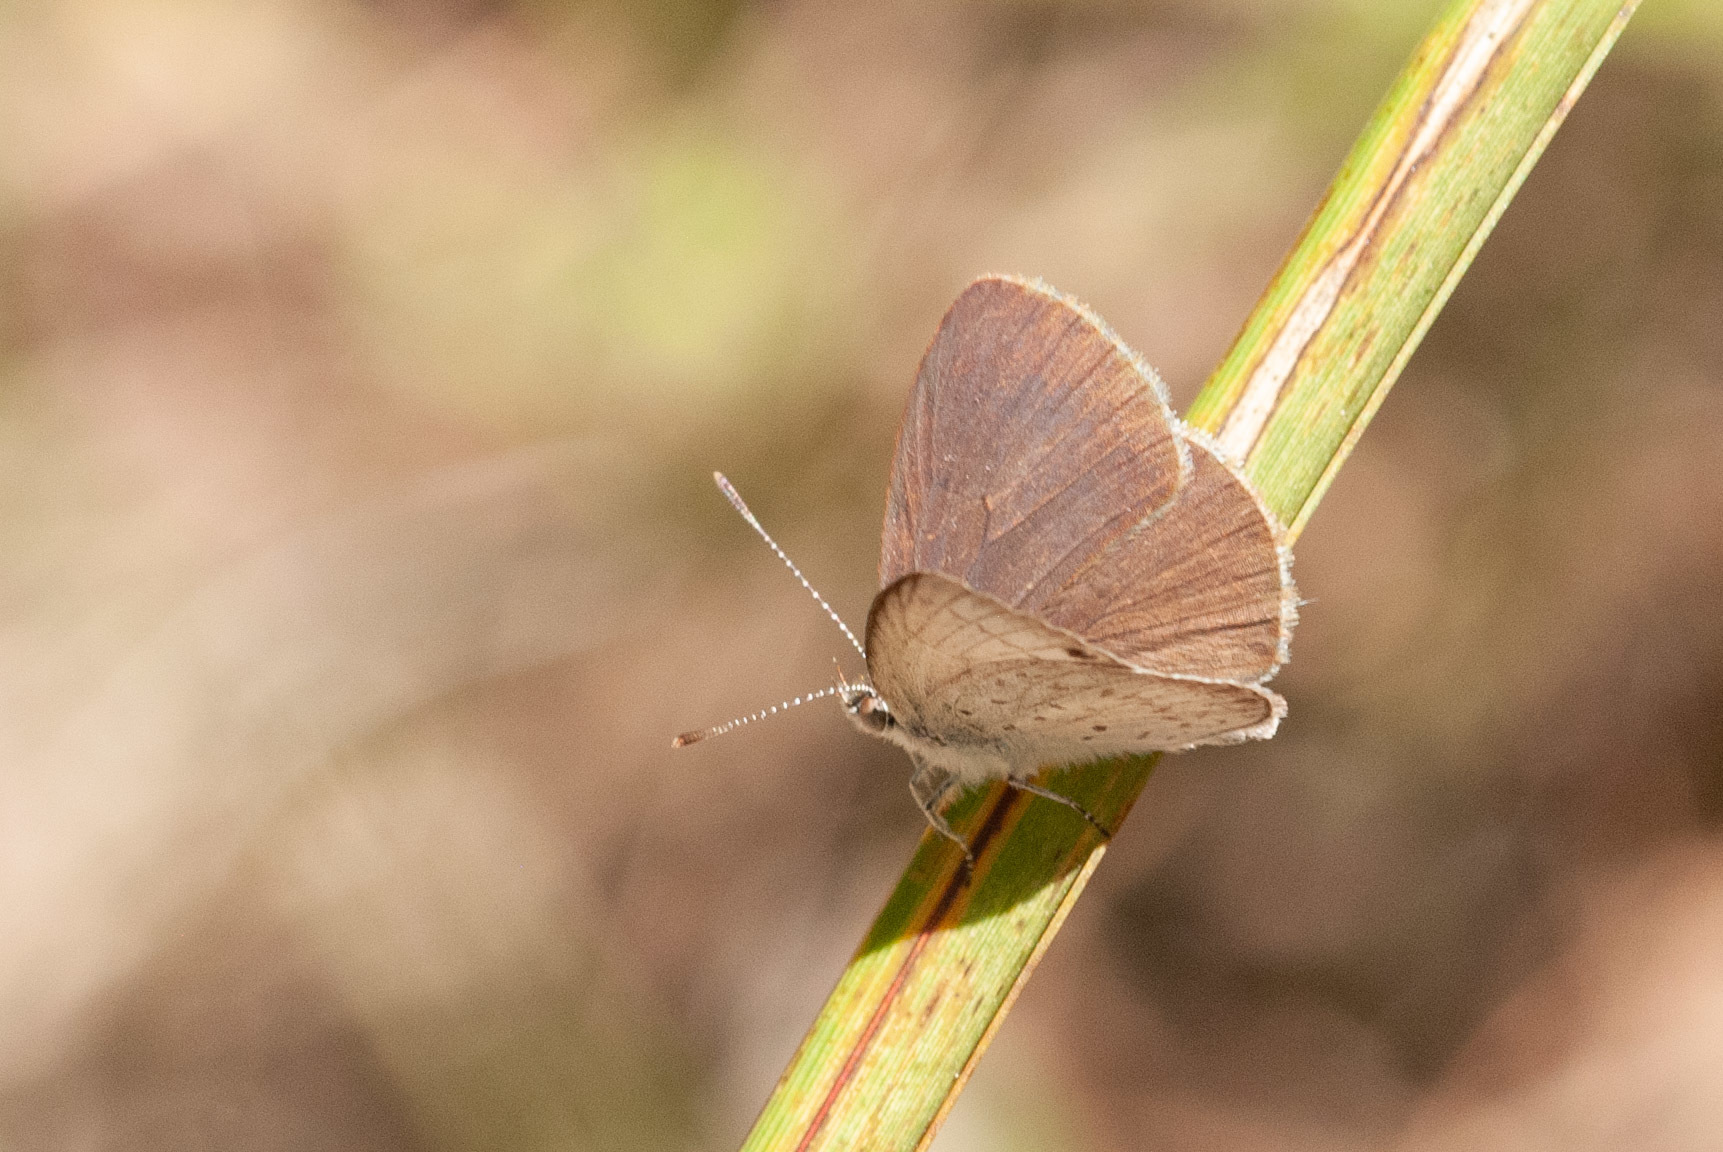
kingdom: Animalia
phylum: Arthropoda
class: Insecta
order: Lepidoptera
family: Lycaenidae
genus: Candalides
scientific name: Candalides
